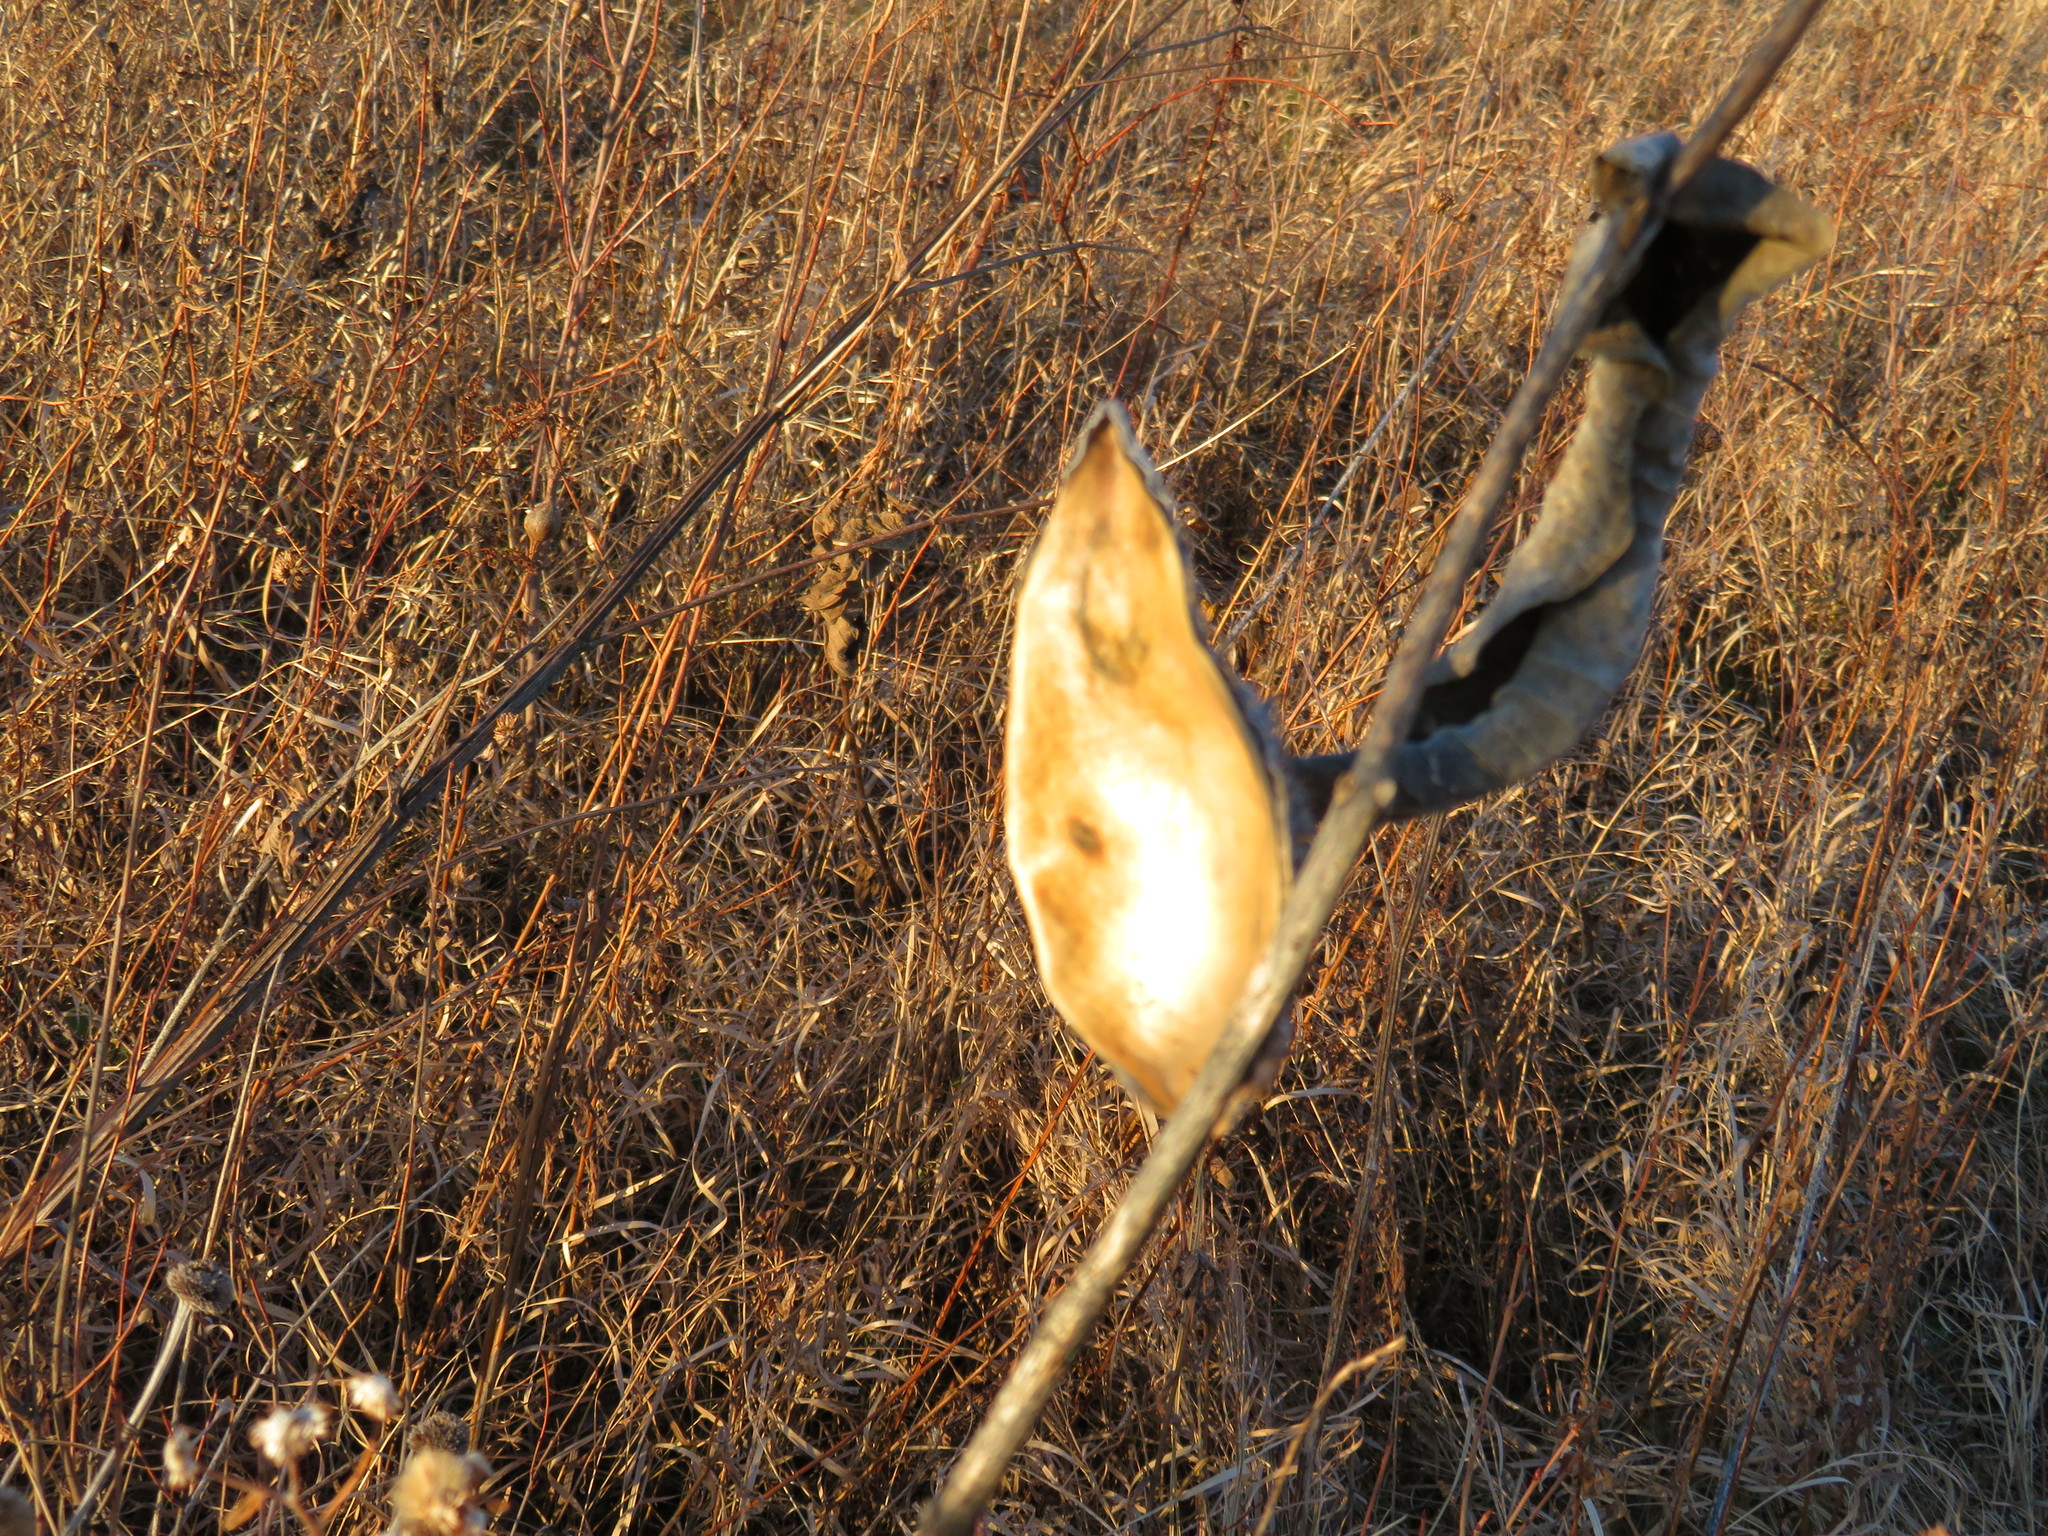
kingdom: Plantae
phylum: Tracheophyta
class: Magnoliopsida
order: Gentianales
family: Apocynaceae
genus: Asclepias
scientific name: Asclepias syriaca
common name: Common milkweed
